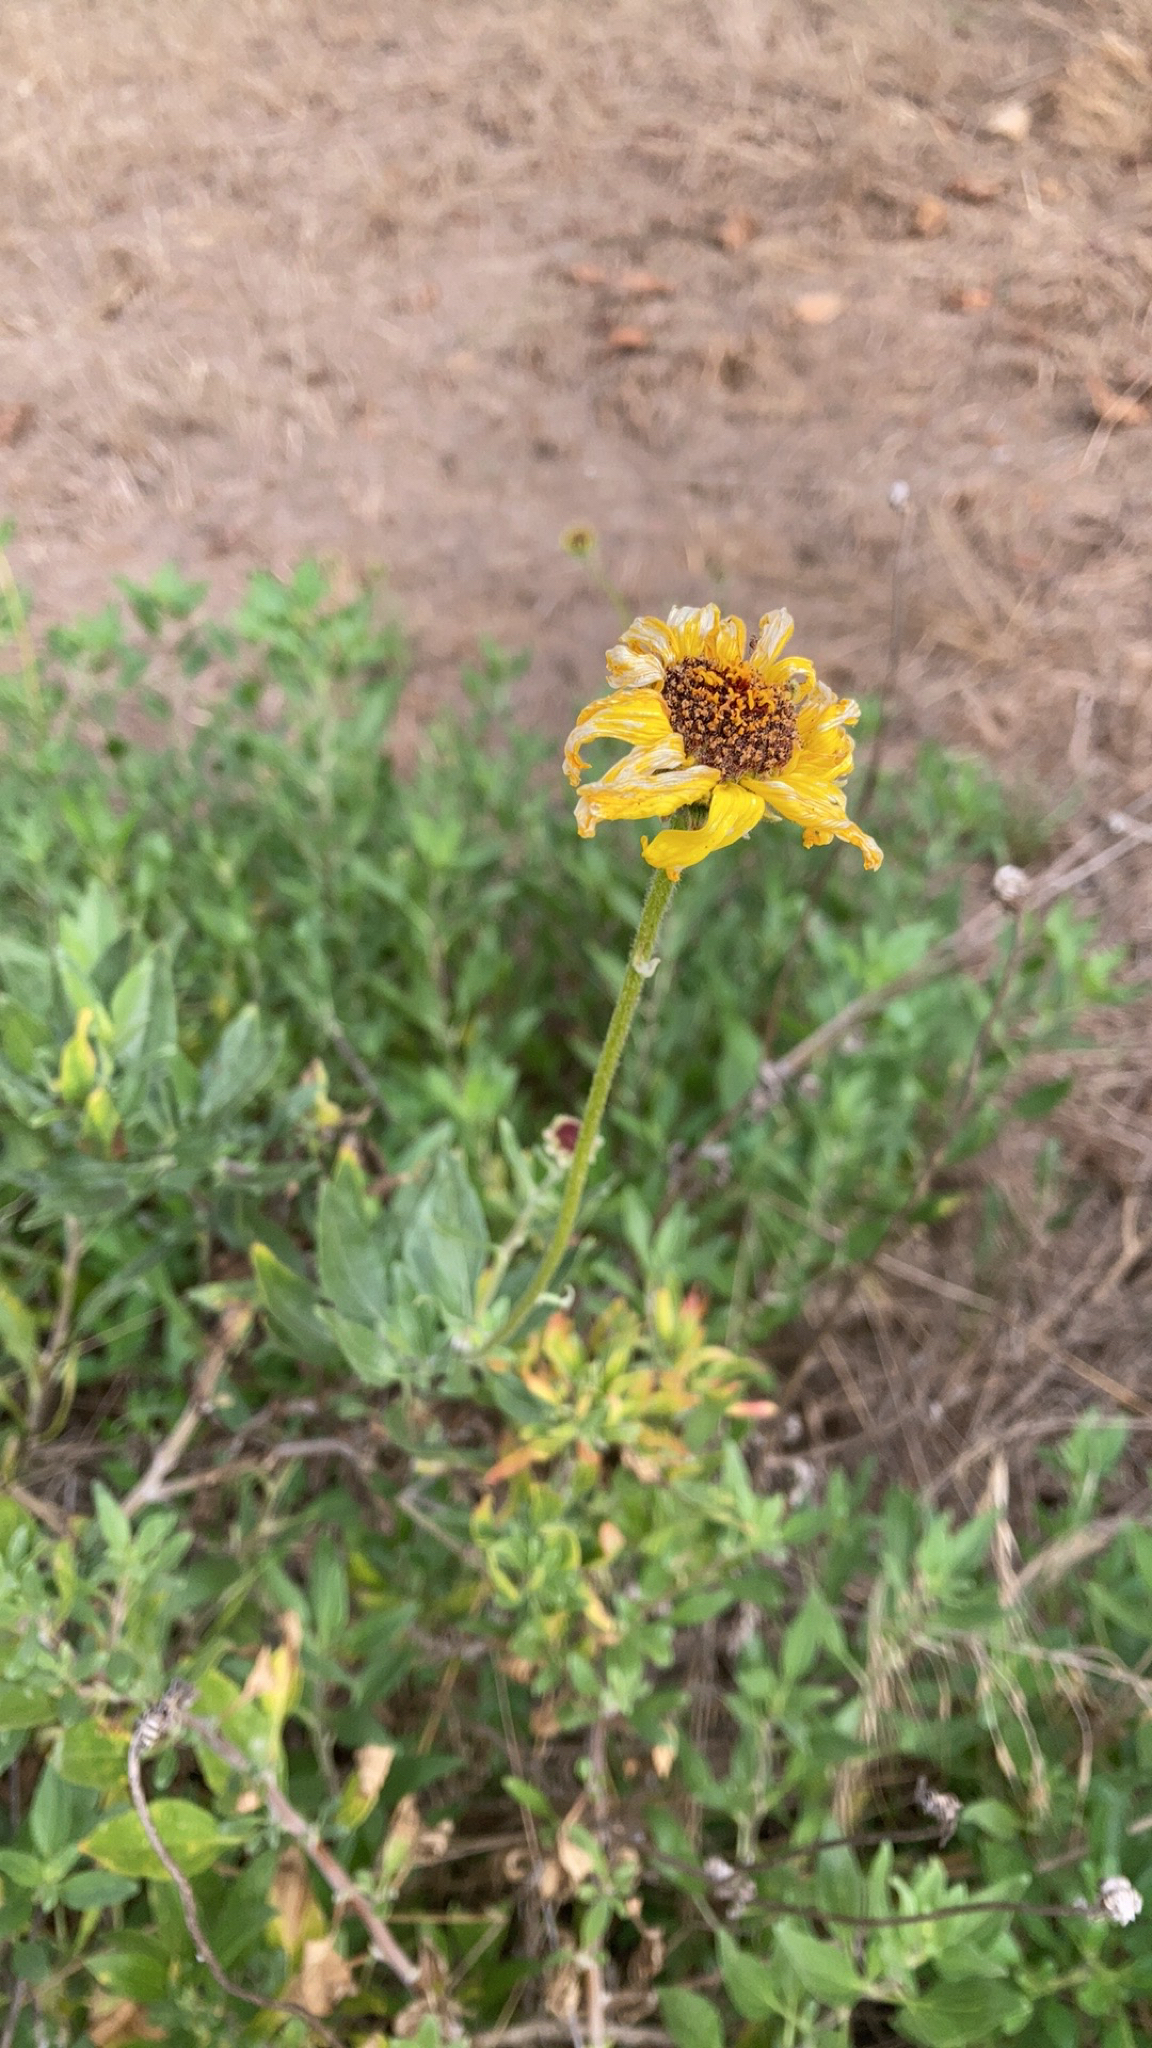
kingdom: Plantae
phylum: Tracheophyta
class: Magnoliopsida
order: Asterales
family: Asteraceae
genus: Encelia
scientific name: Encelia californica
